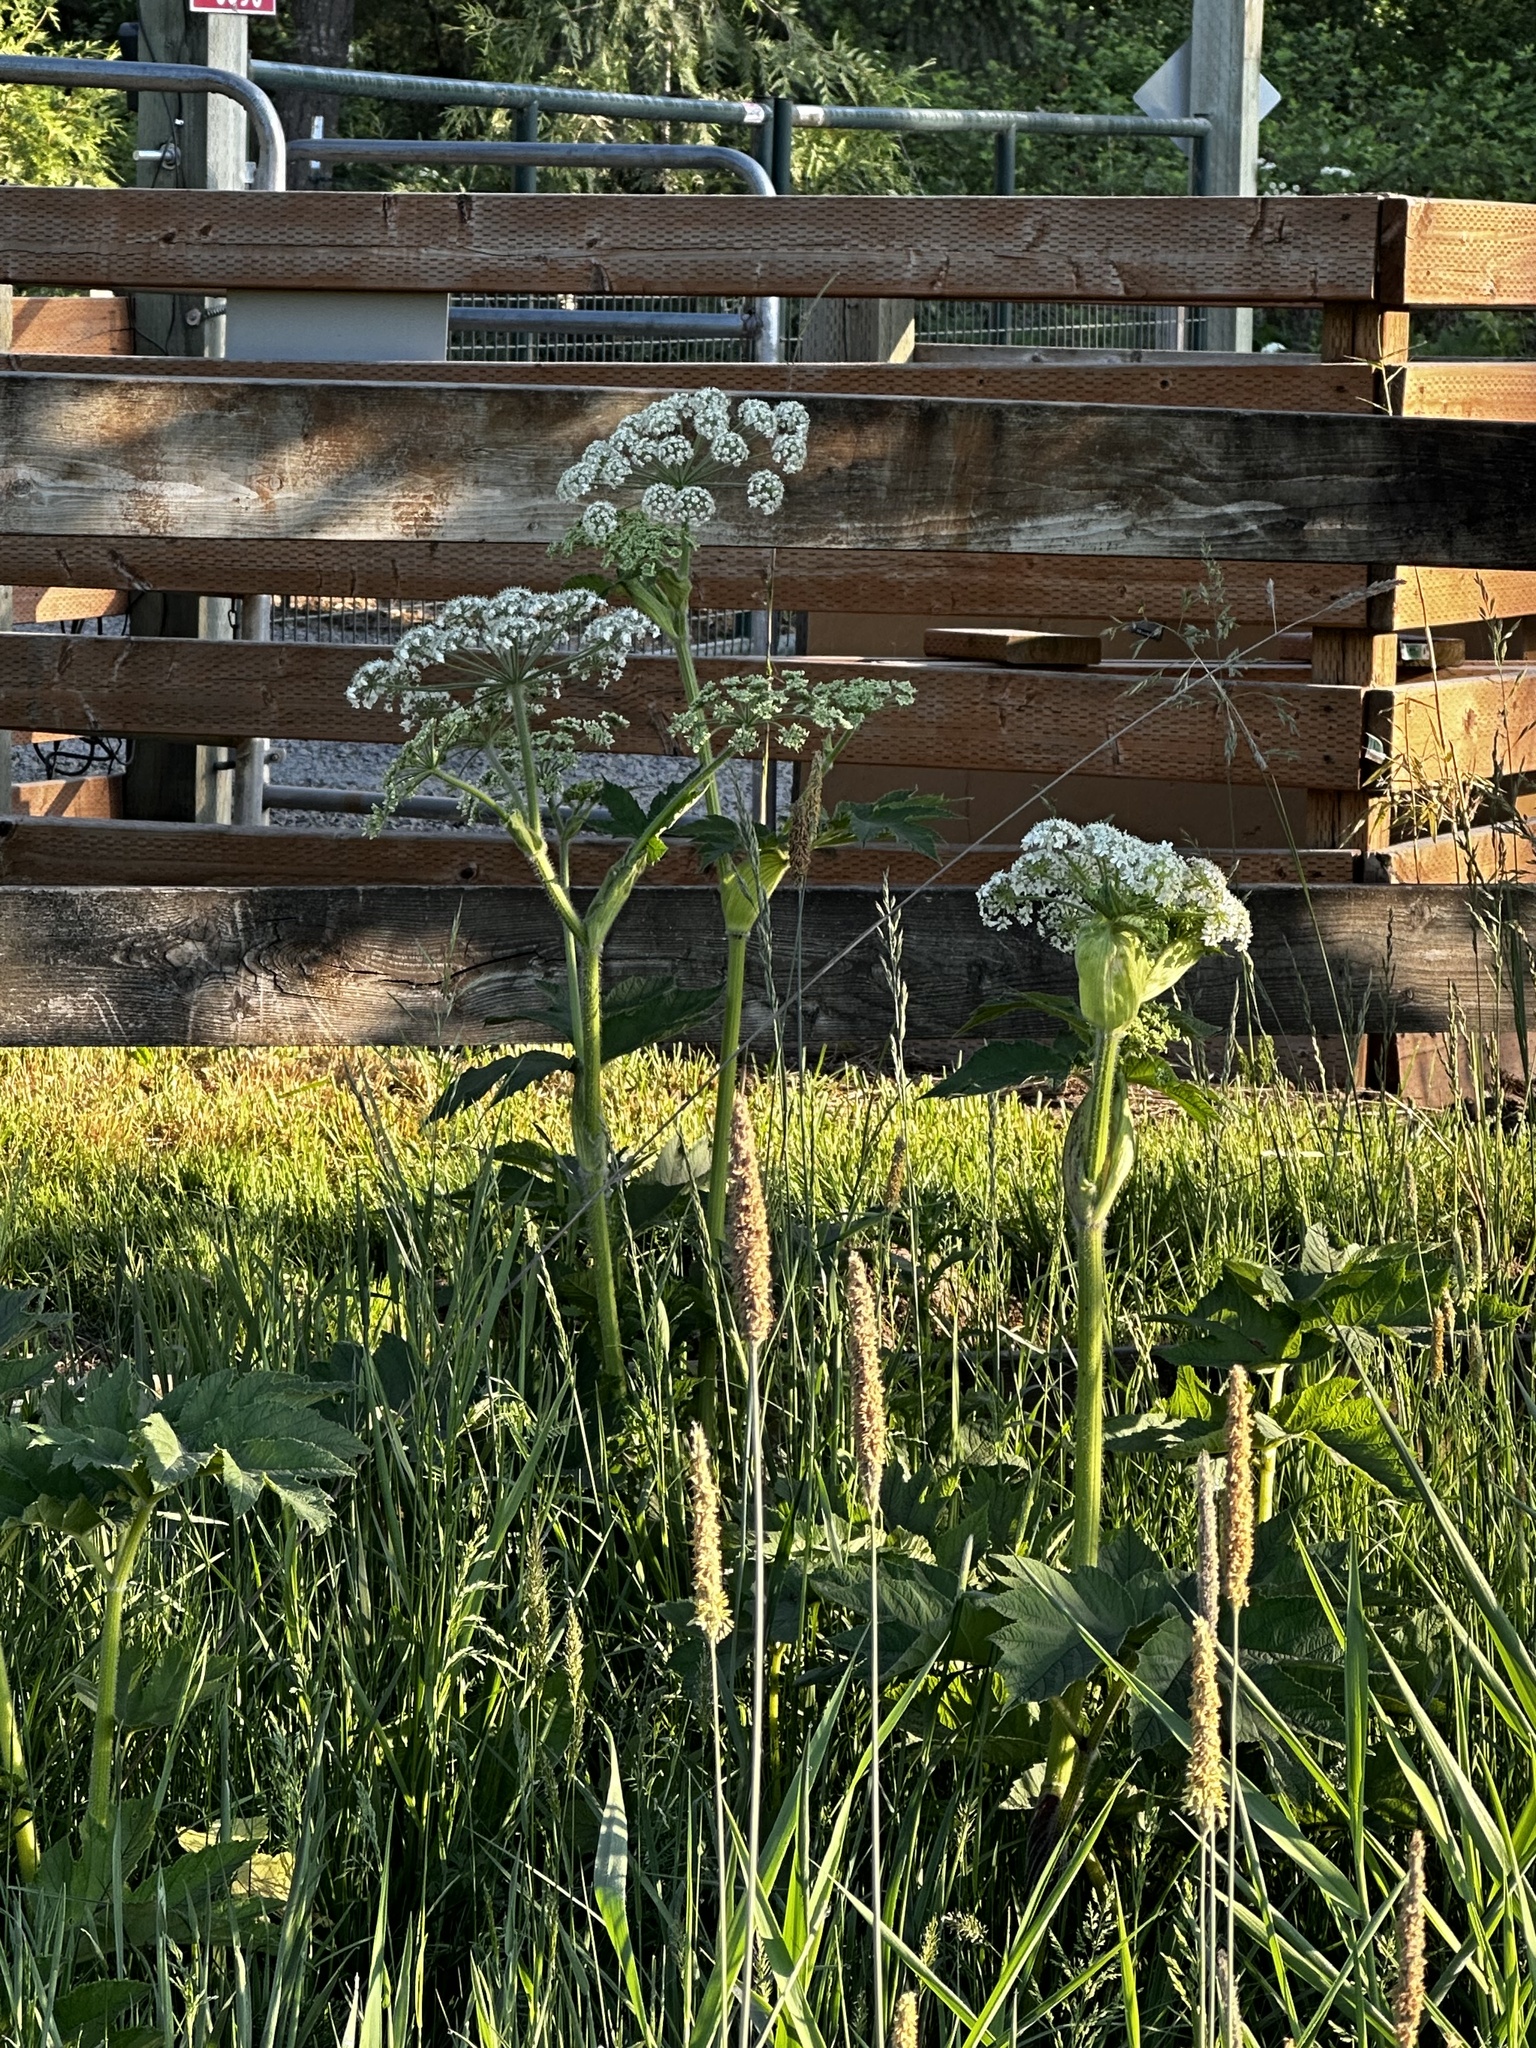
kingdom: Plantae
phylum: Tracheophyta
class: Magnoliopsida
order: Apiales
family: Apiaceae
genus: Heracleum
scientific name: Heracleum maximum
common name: American cow parsnip
